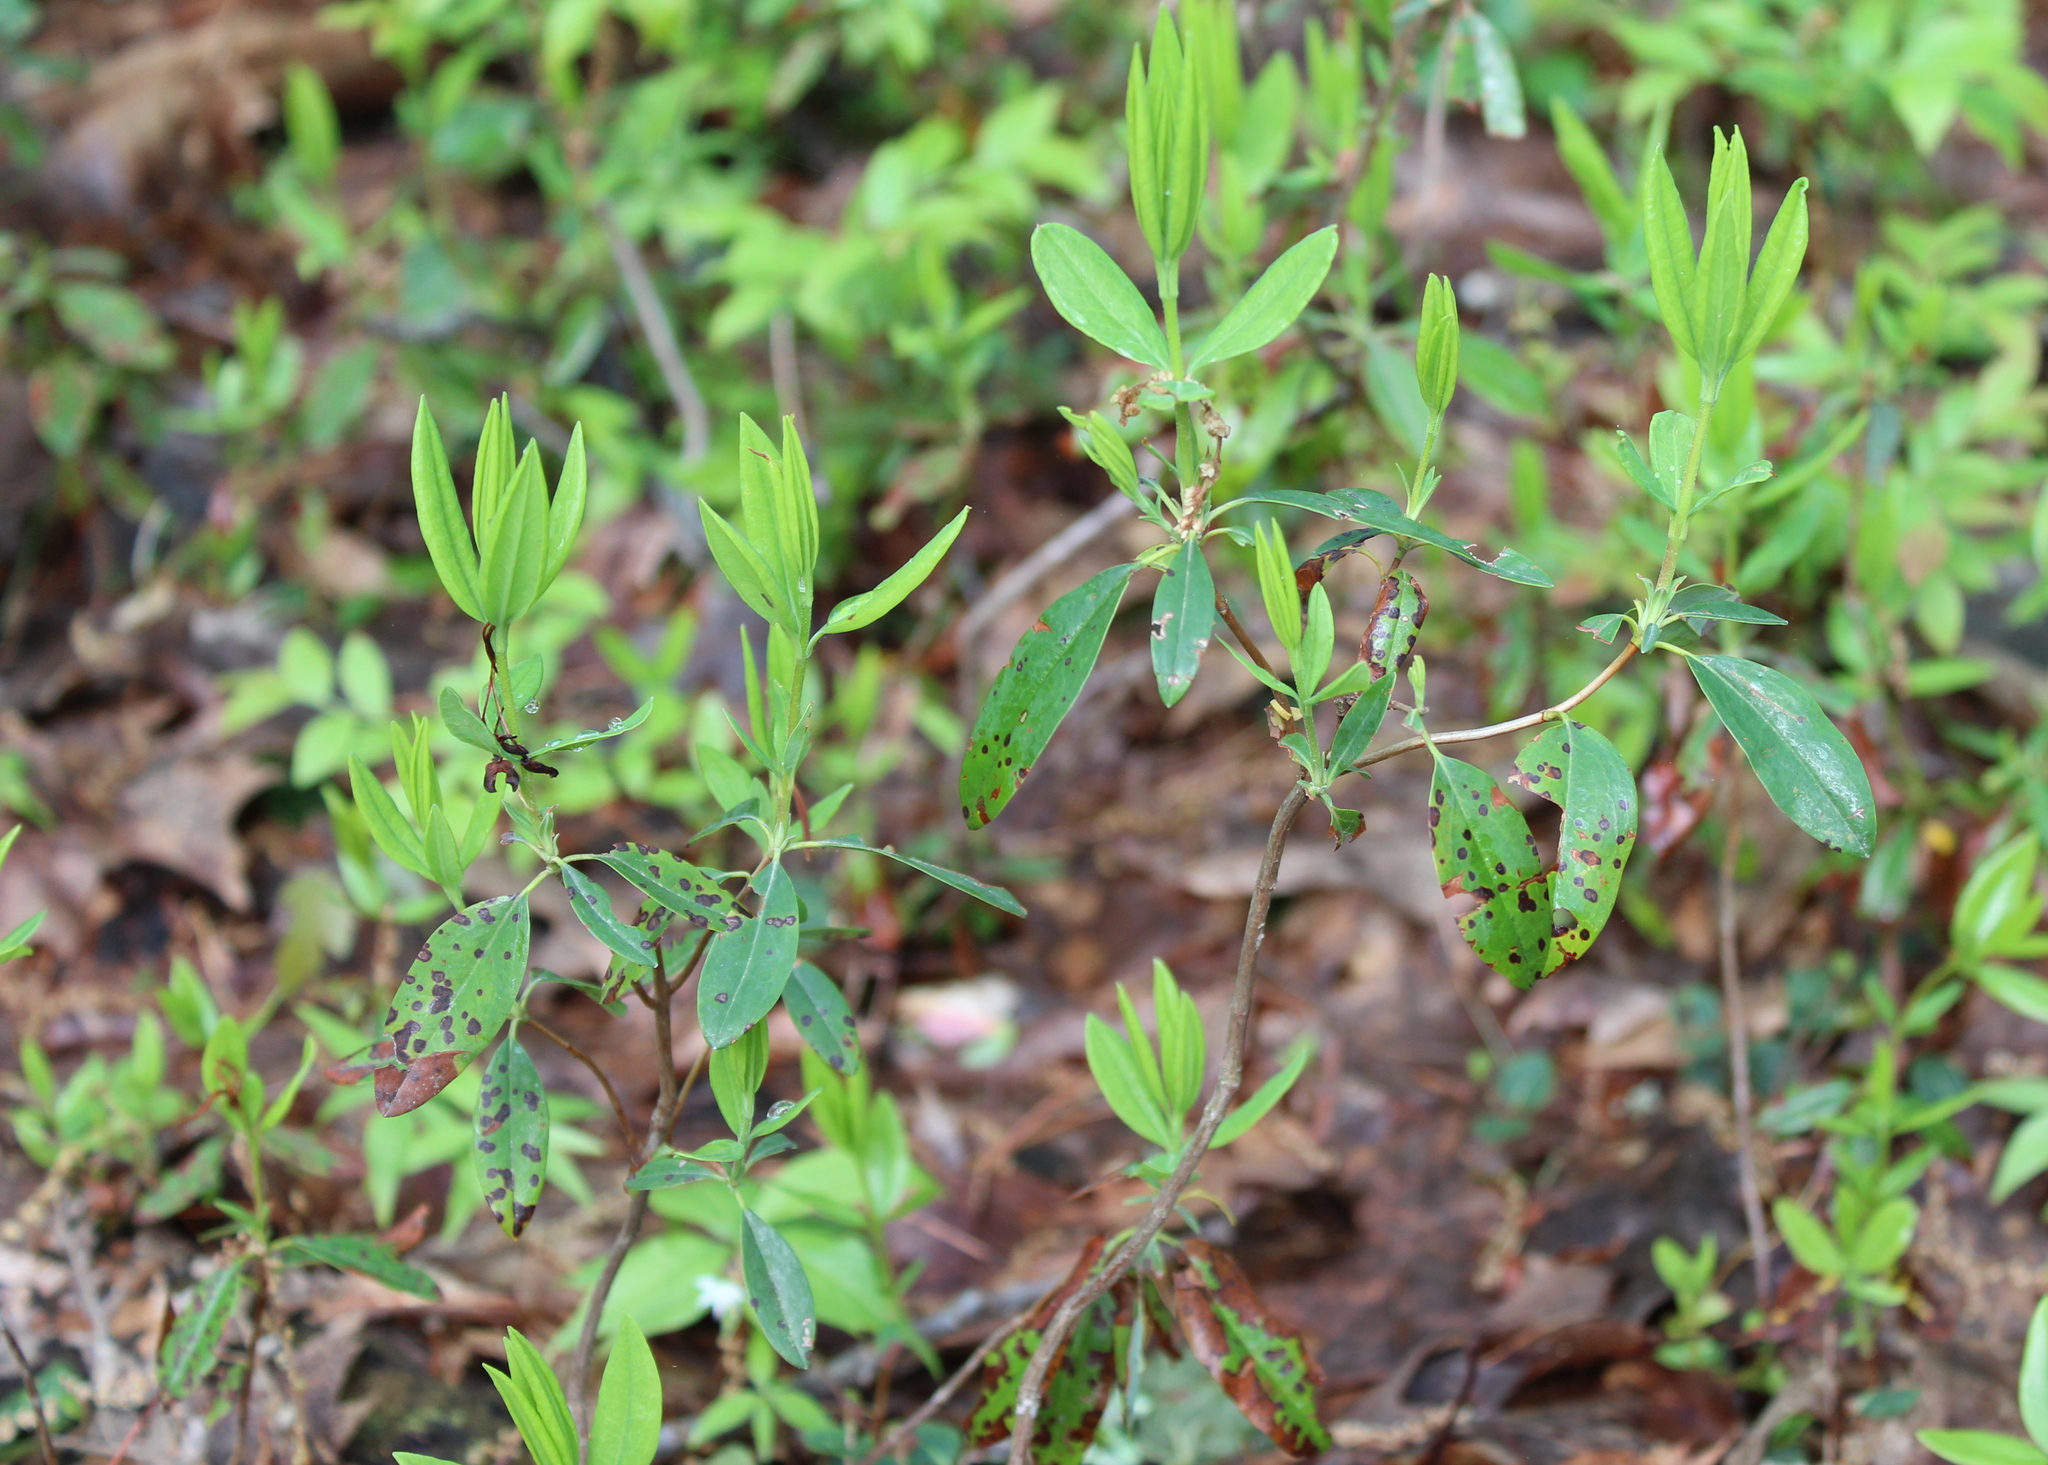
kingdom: Plantae
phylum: Tracheophyta
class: Magnoliopsida
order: Ericales
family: Ericaceae
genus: Kalmia
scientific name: Kalmia angustifolia
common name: Sheep-laurel
